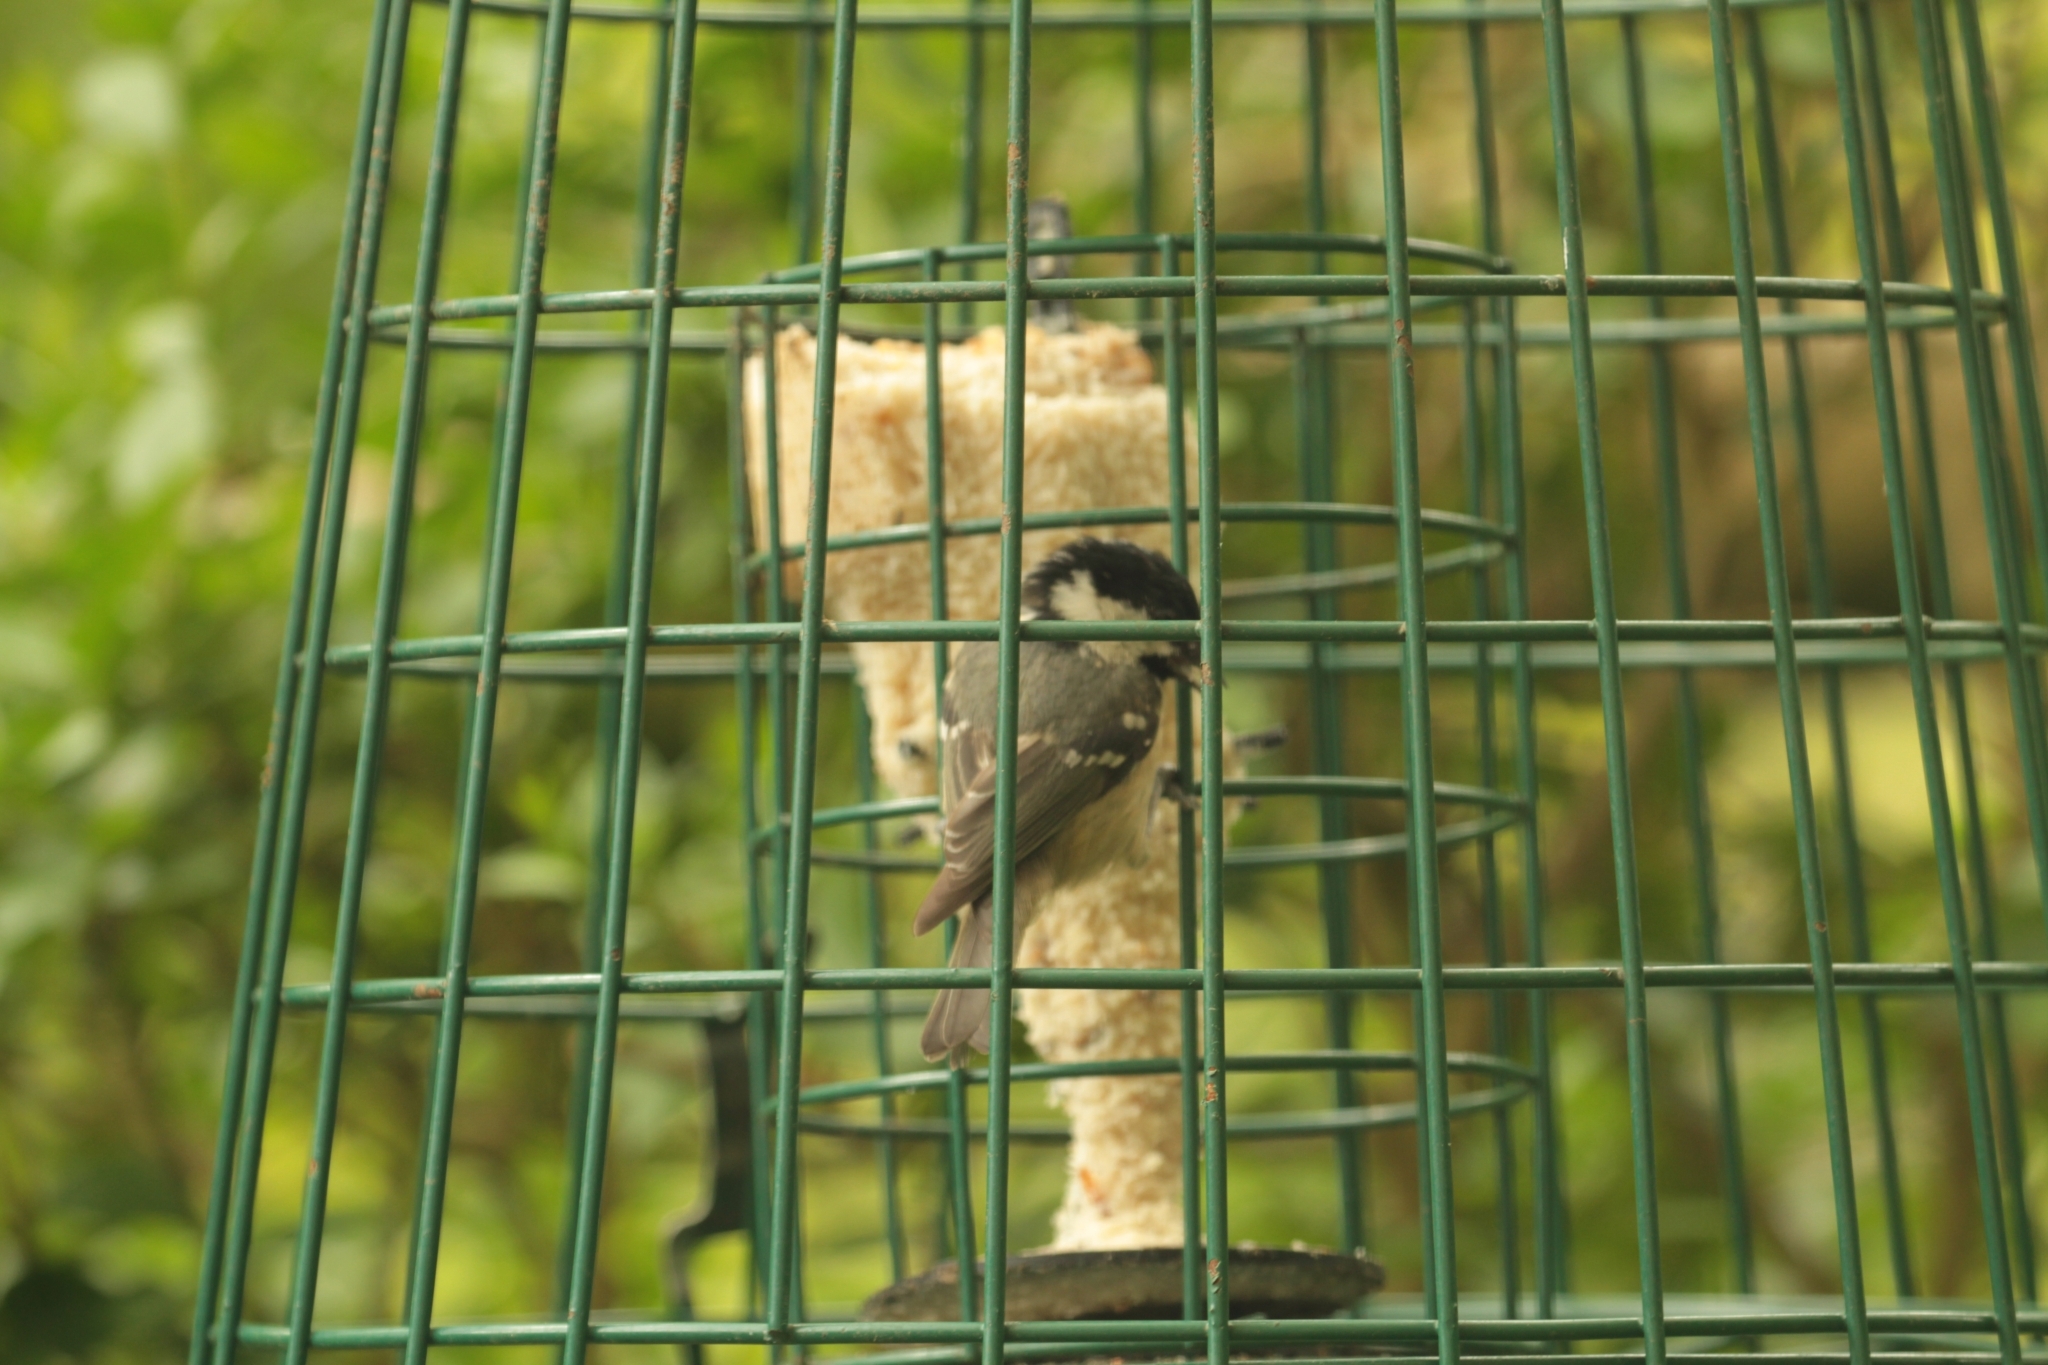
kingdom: Animalia
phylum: Chordata
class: Aves
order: Passeriformes
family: Paridae
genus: Periparus
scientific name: Periparus ater
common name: Coal tit
